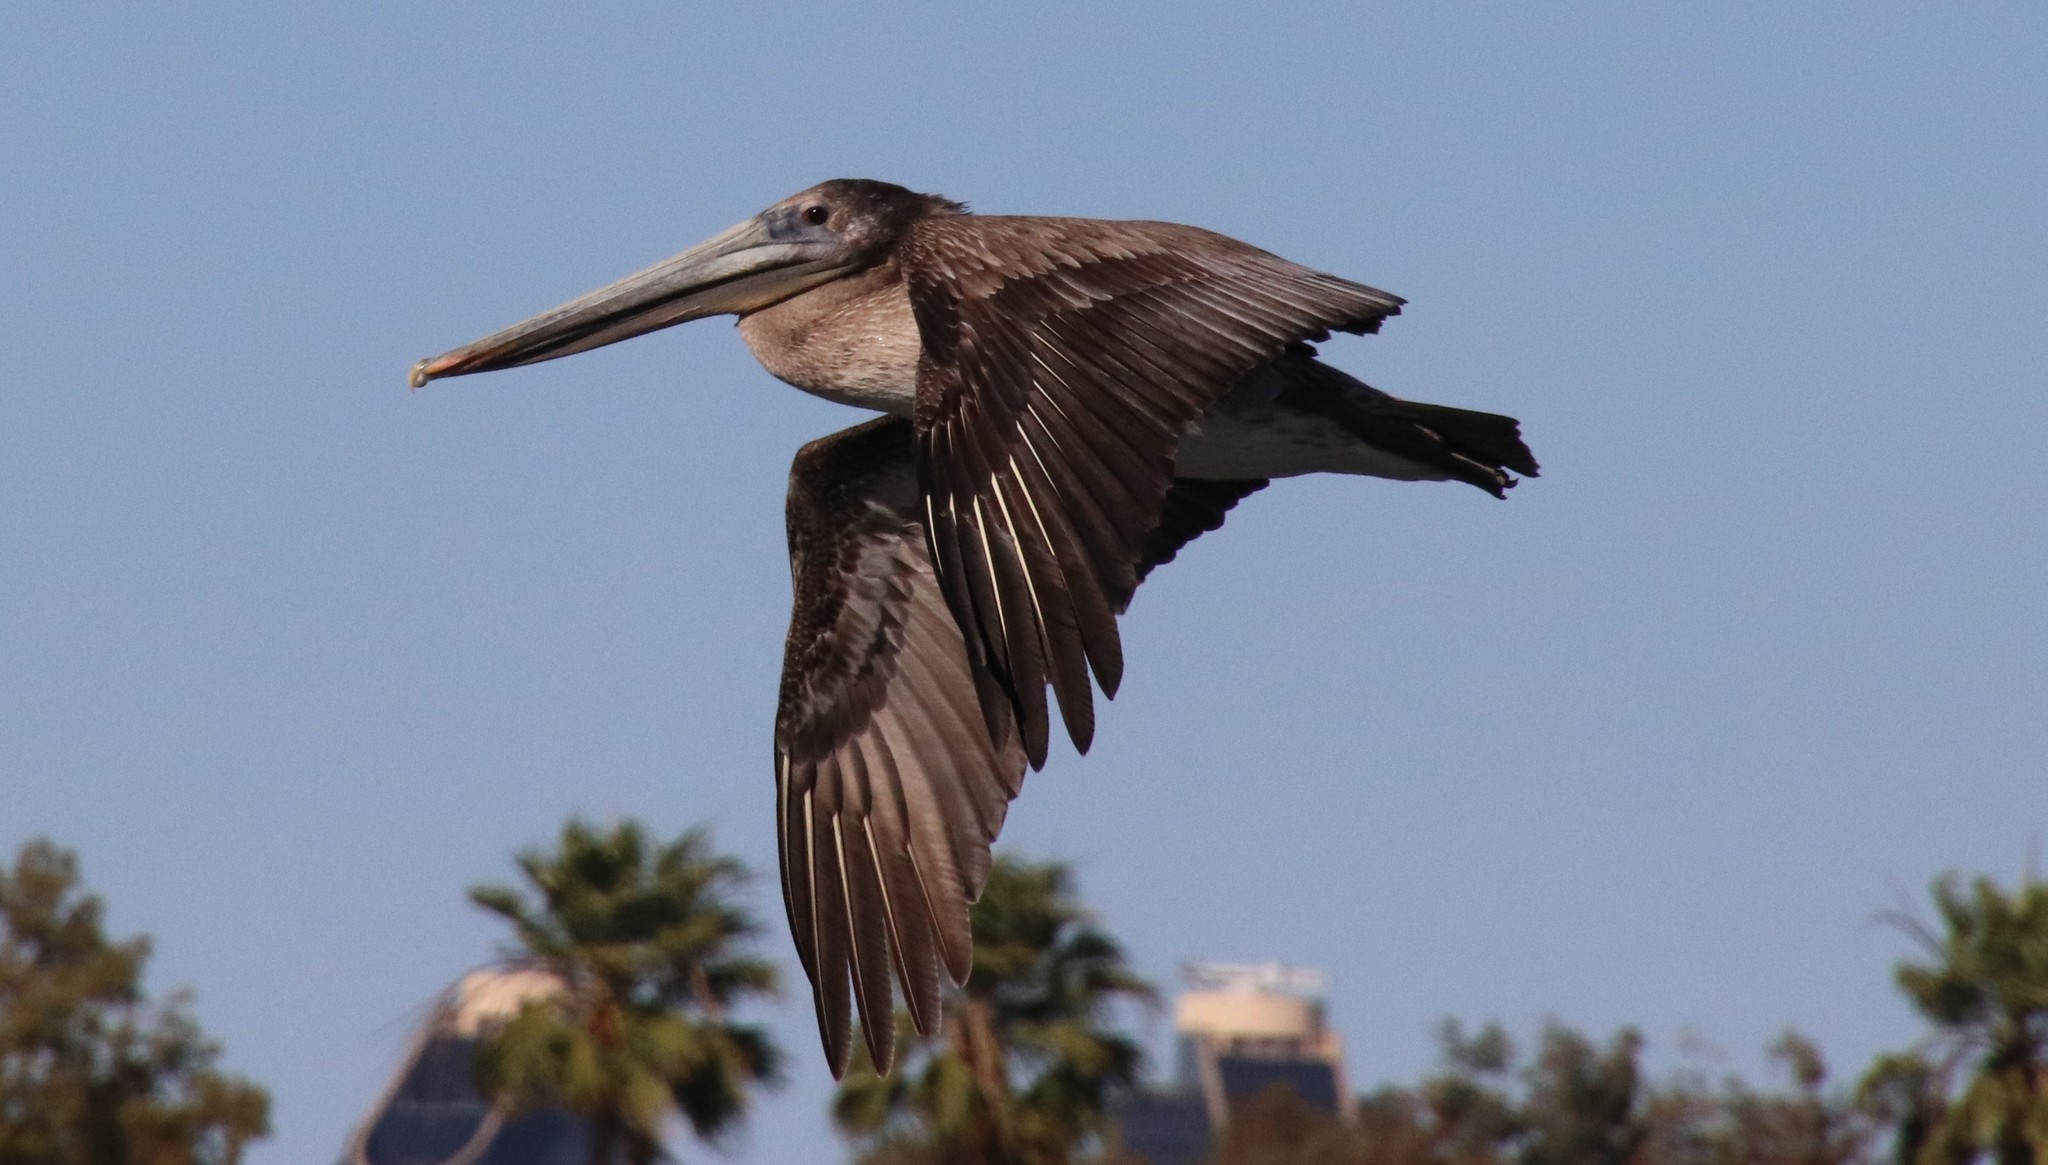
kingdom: Animalia
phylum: Chordata
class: Aves
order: Pelecaniformes
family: Pelecanidae
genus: Pelecanus
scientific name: Pelecanus occidentalis
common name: Brown pelican
